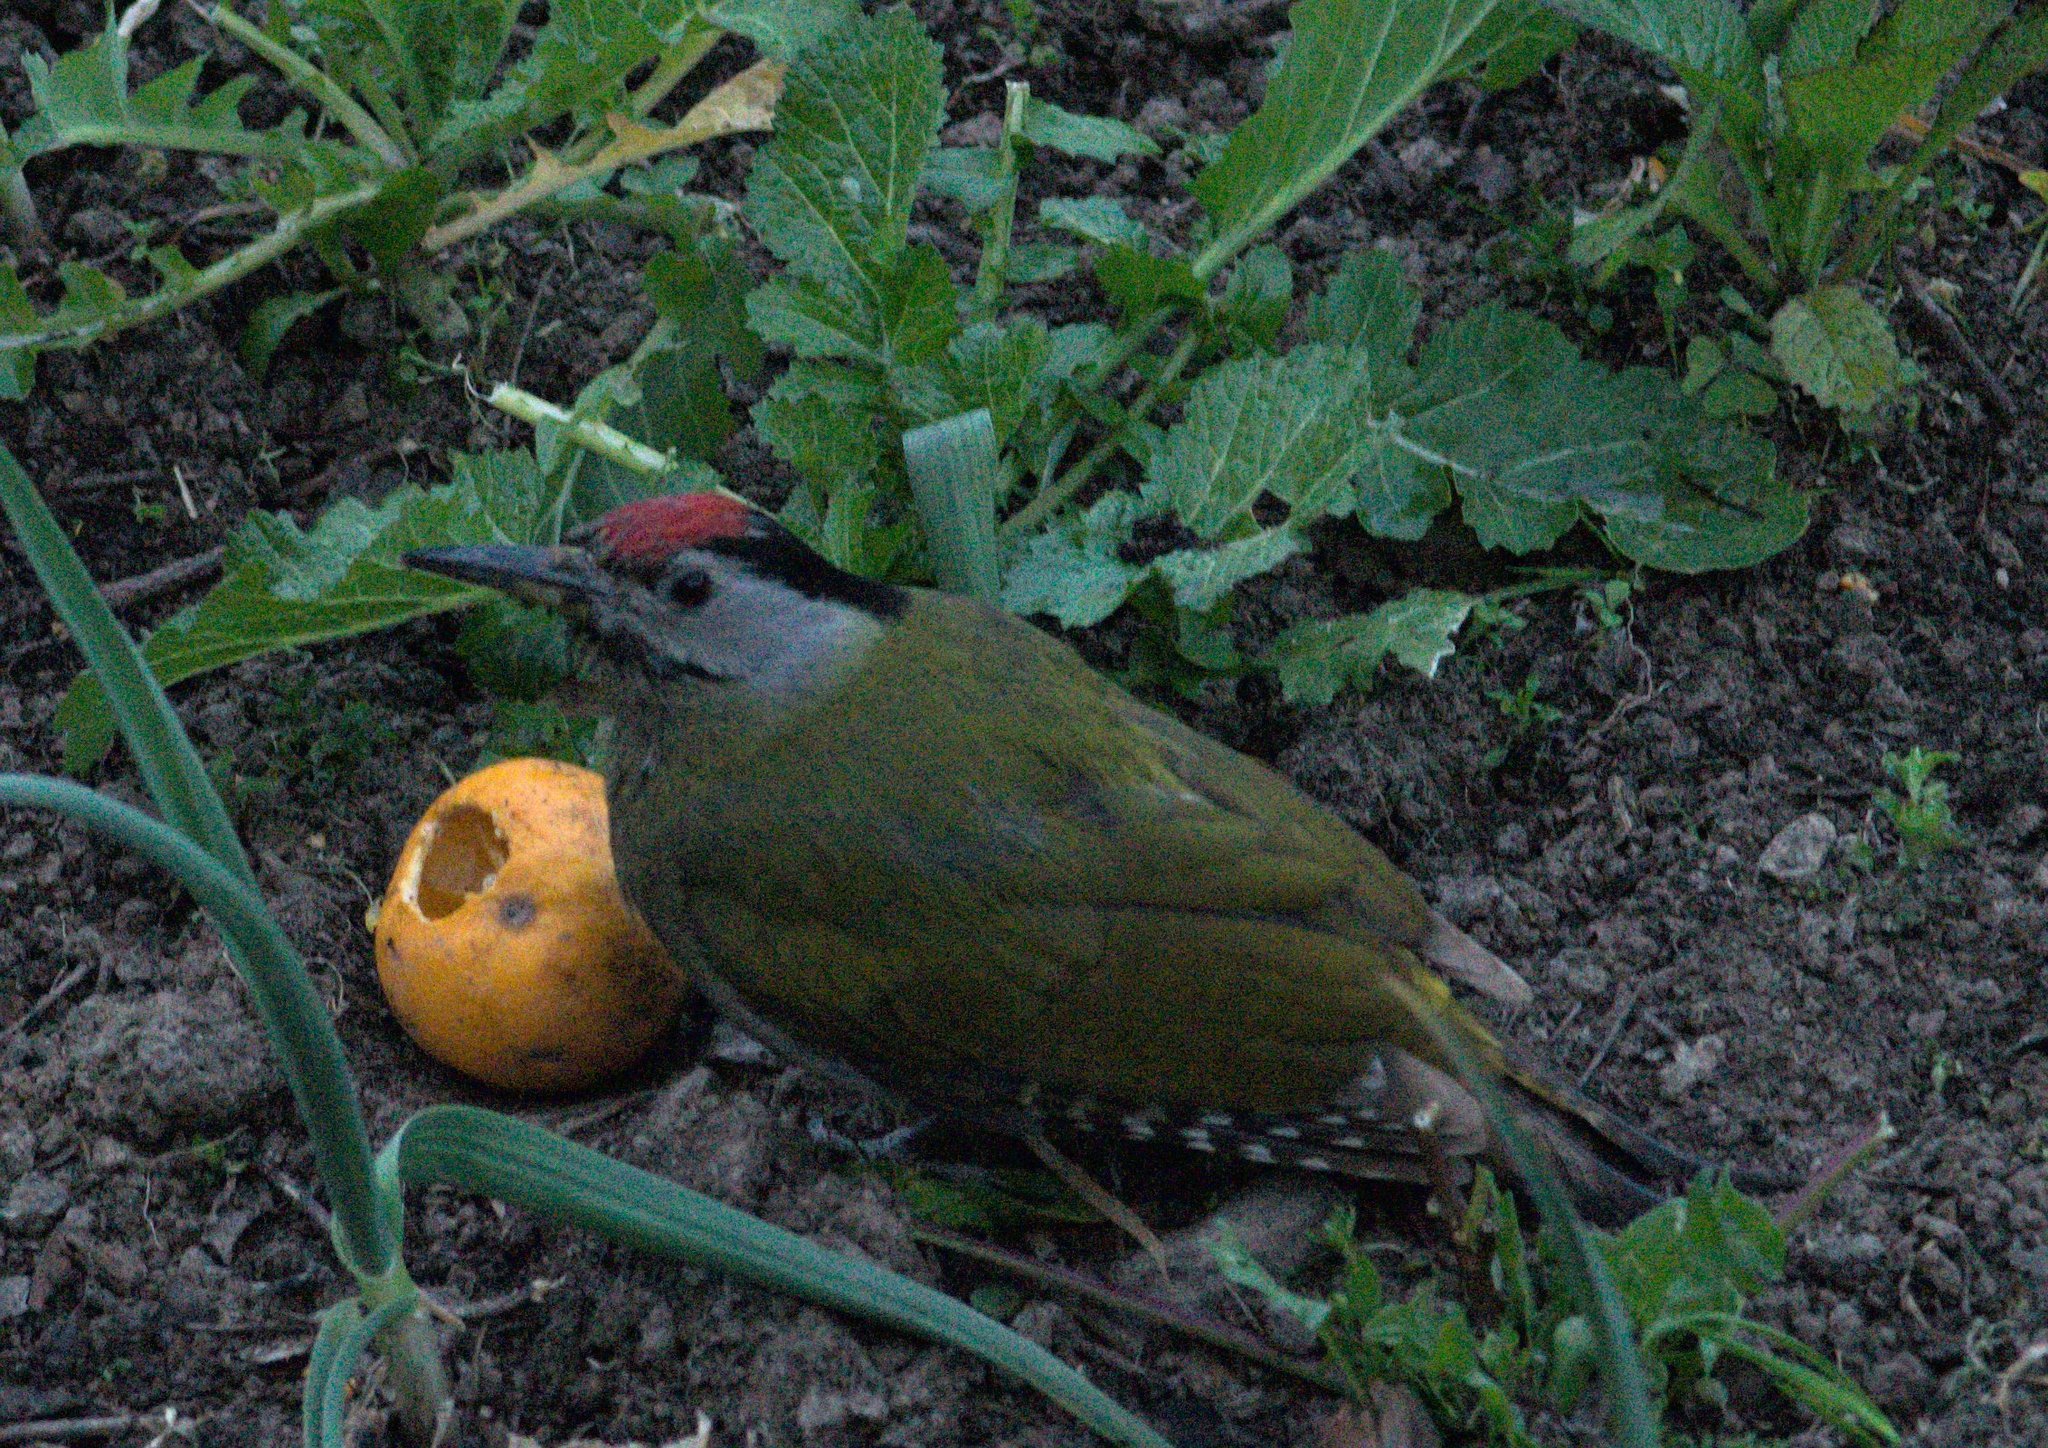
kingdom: Animalia
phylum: Chordata
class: Aves
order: Piciformes
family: Picidae
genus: Picus
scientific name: Picus canus
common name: Grey-headed woodpecker
